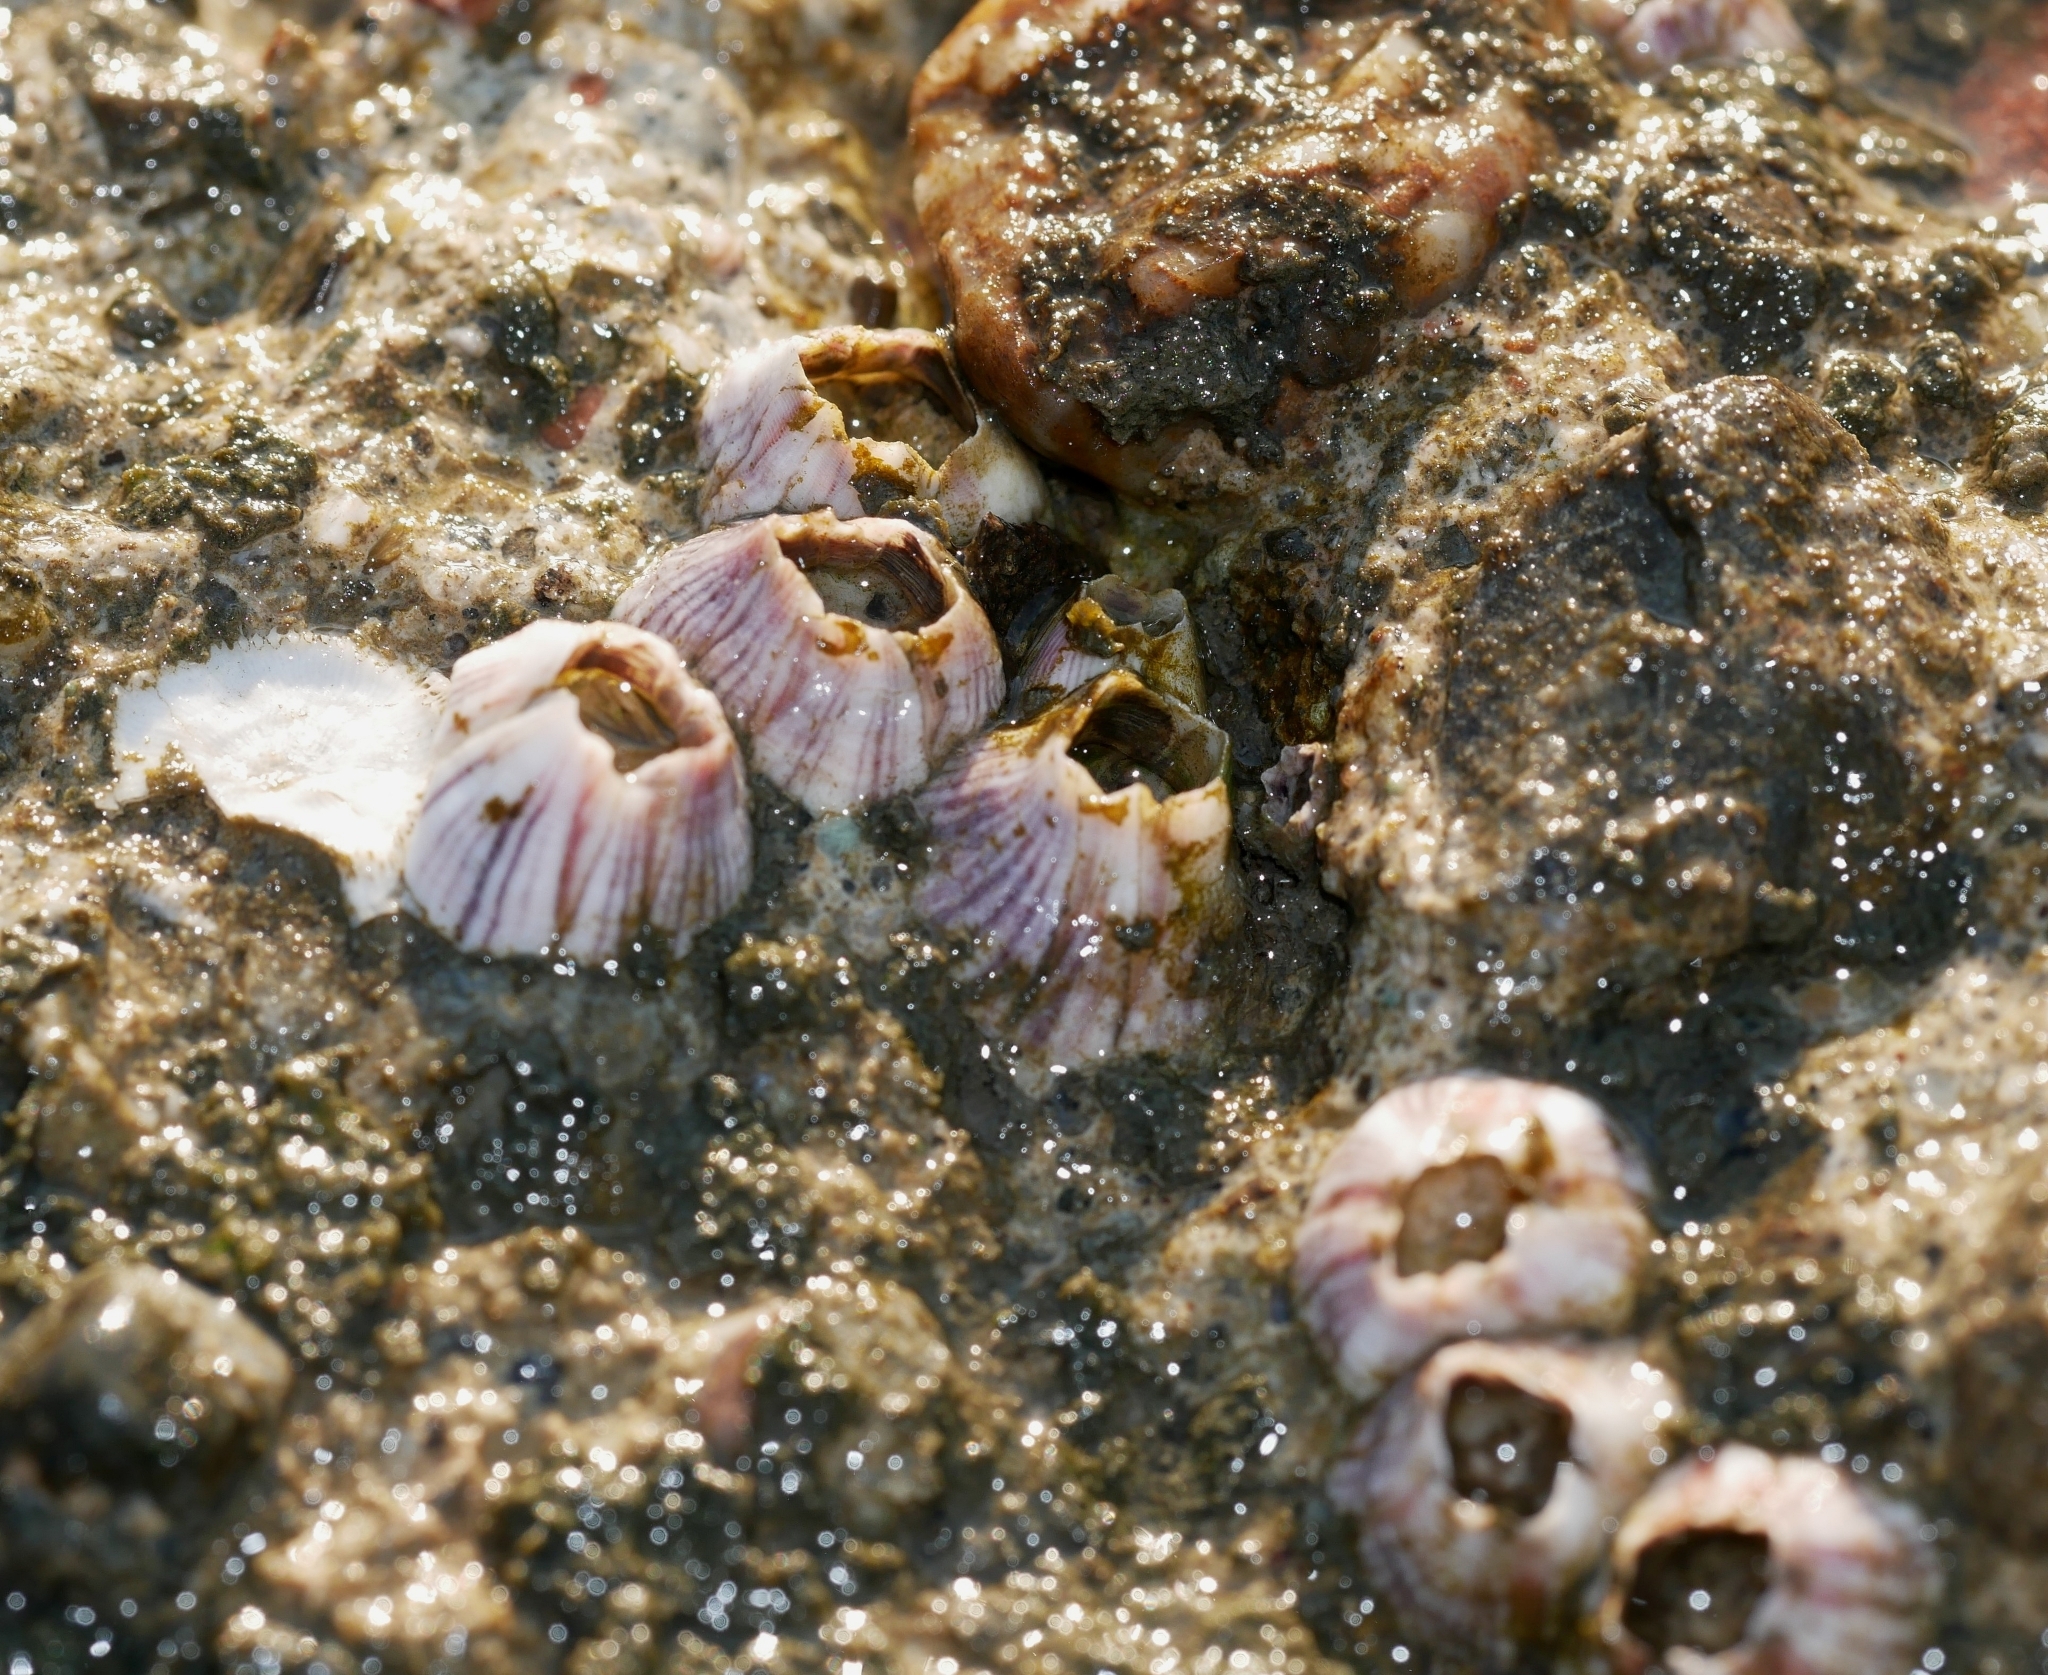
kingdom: Animalia
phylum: Arthropoda
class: Maxillopoda
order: Sessilia
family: Balanidae
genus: Amphibalanus
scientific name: Amphibalanus amphitrite
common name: Striped acorn barnacle
